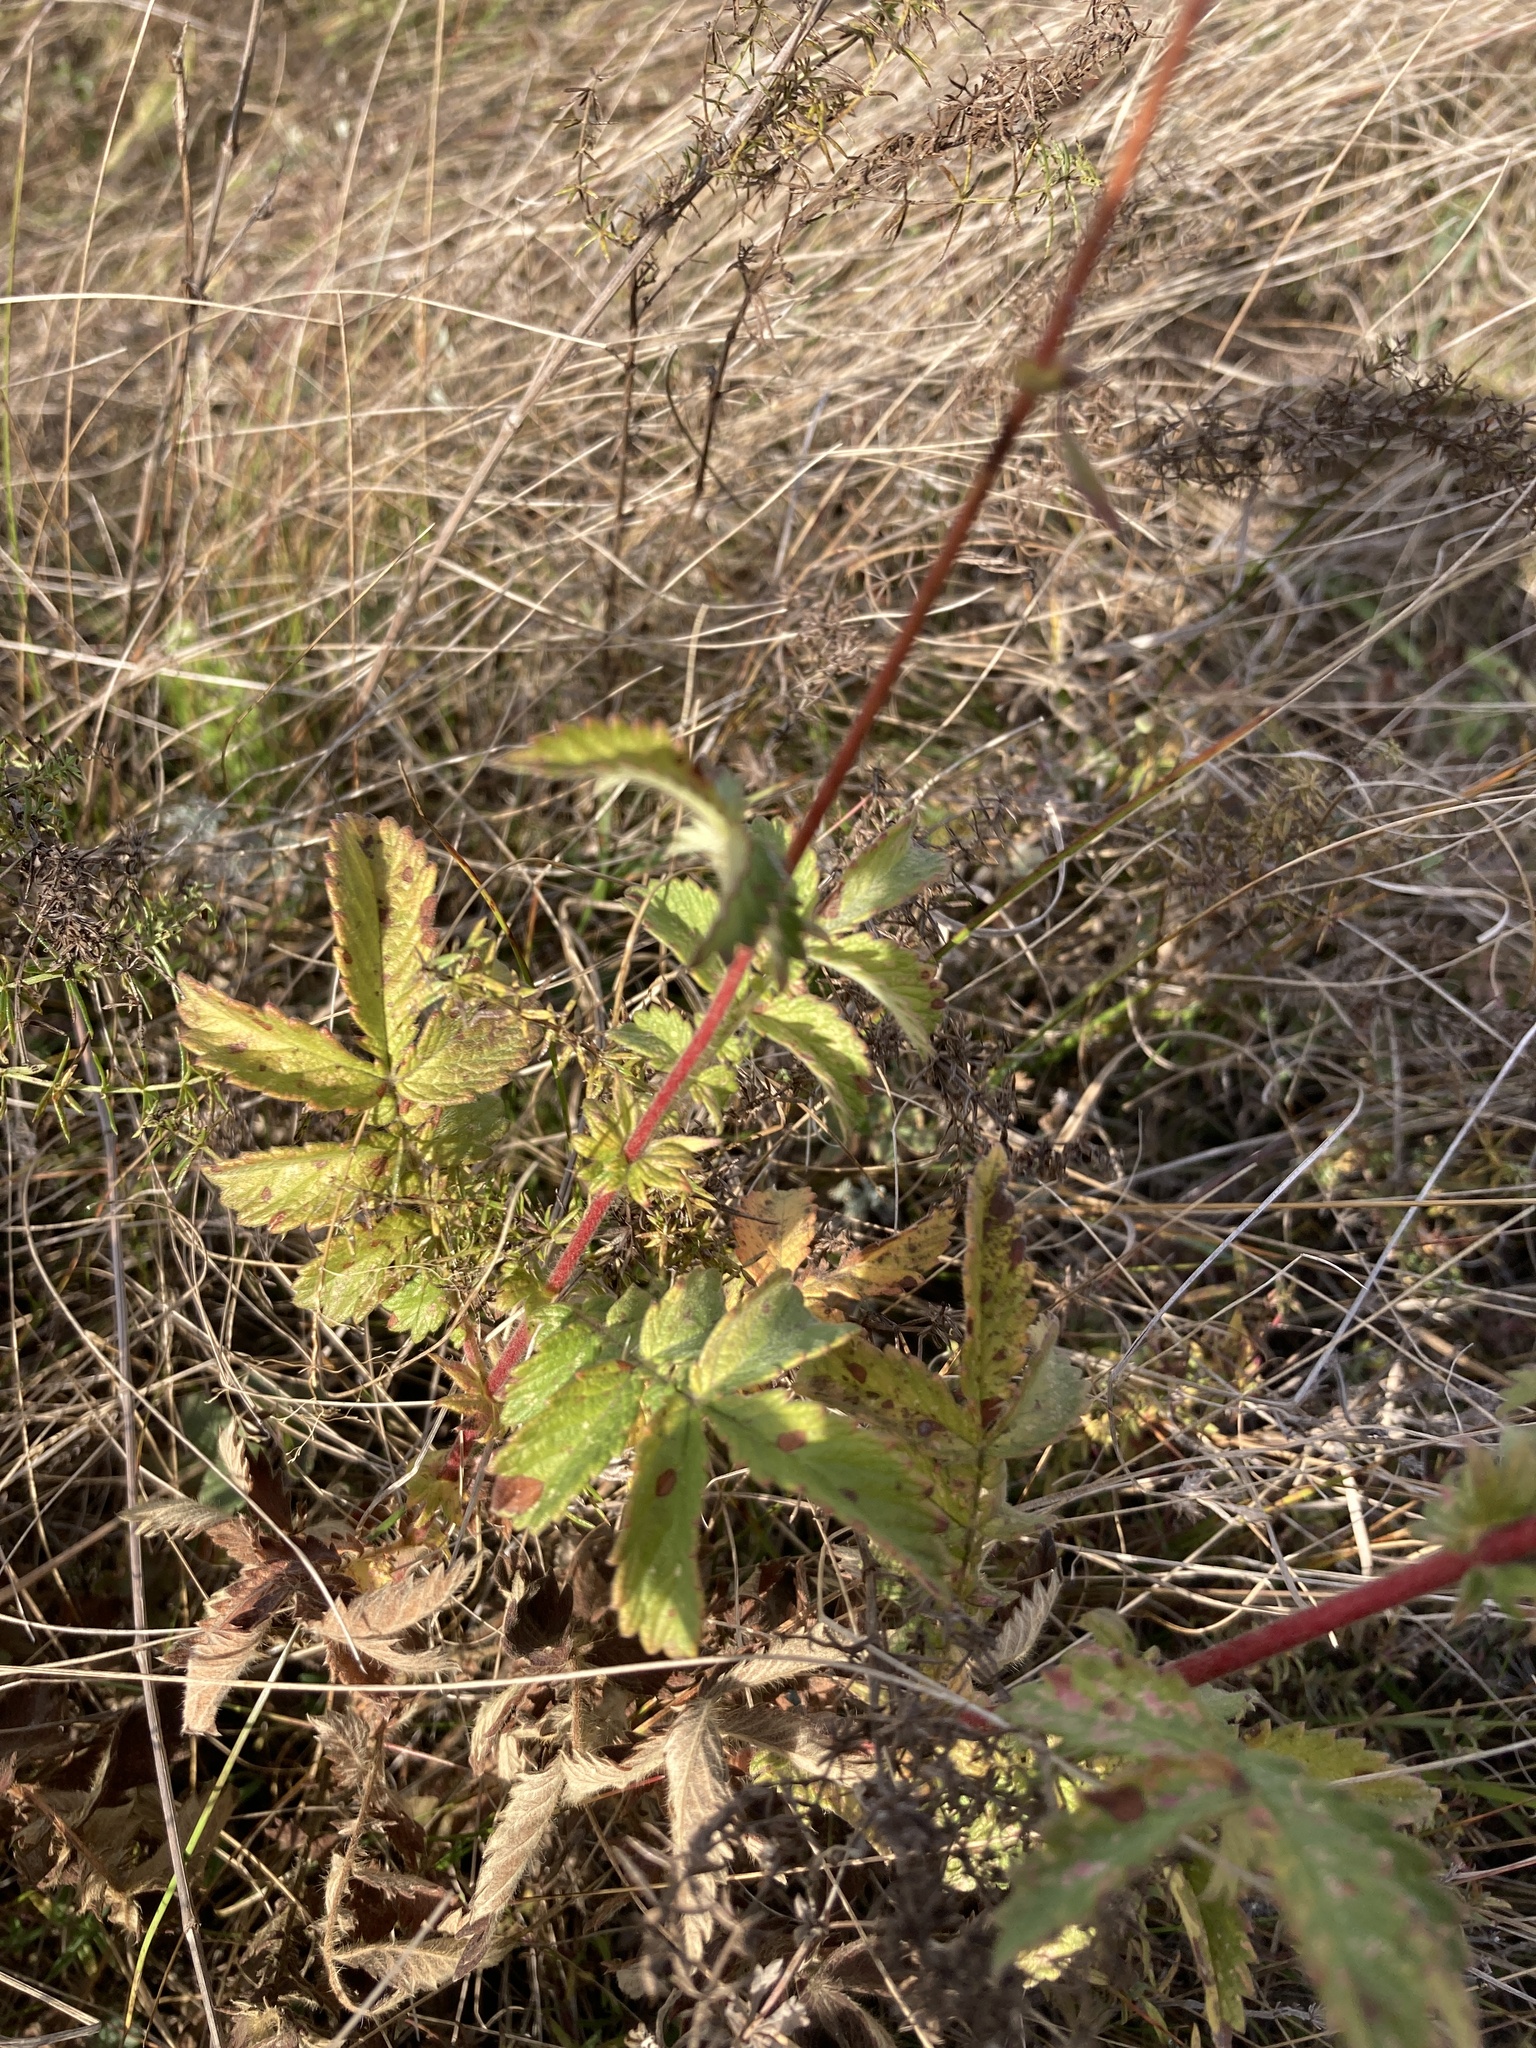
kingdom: Plantae
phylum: Tracheophyta
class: Magnoliopsida
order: Rosales
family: Rosaceae
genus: Agrimonia
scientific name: Agrimonia eupatoria
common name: Agrimony
